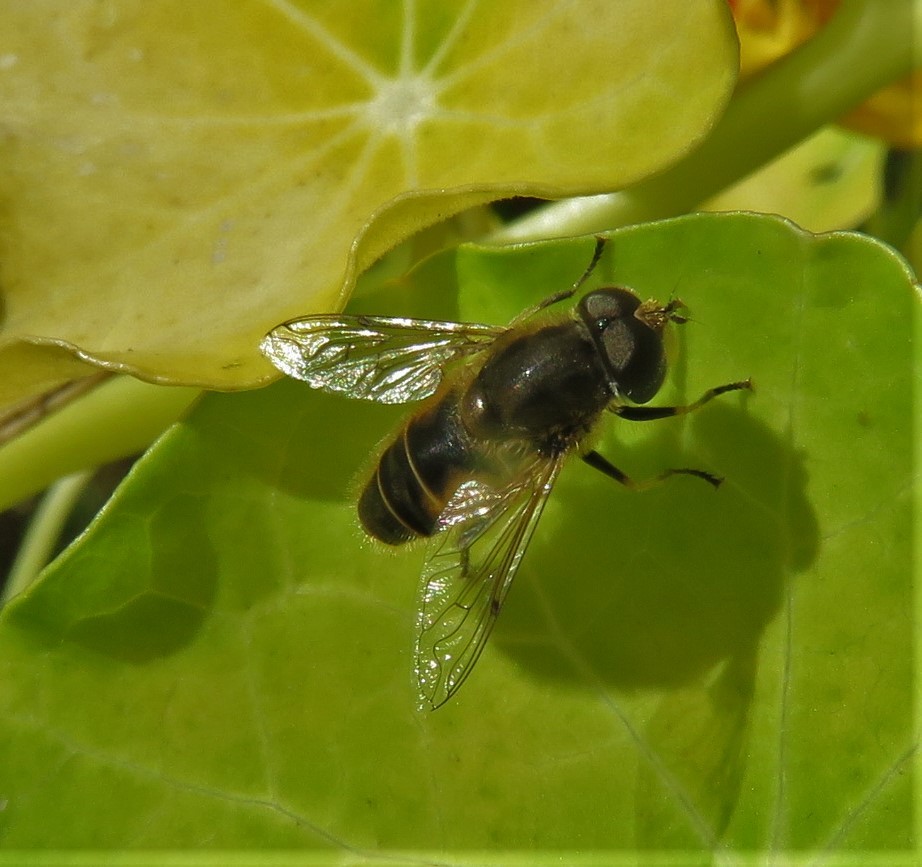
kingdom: Animalia
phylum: Arthropoda
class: Insecta
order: Diptera
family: Syrphidae
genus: Eristalis
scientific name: Eristalis arbustorum
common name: Hover fly
